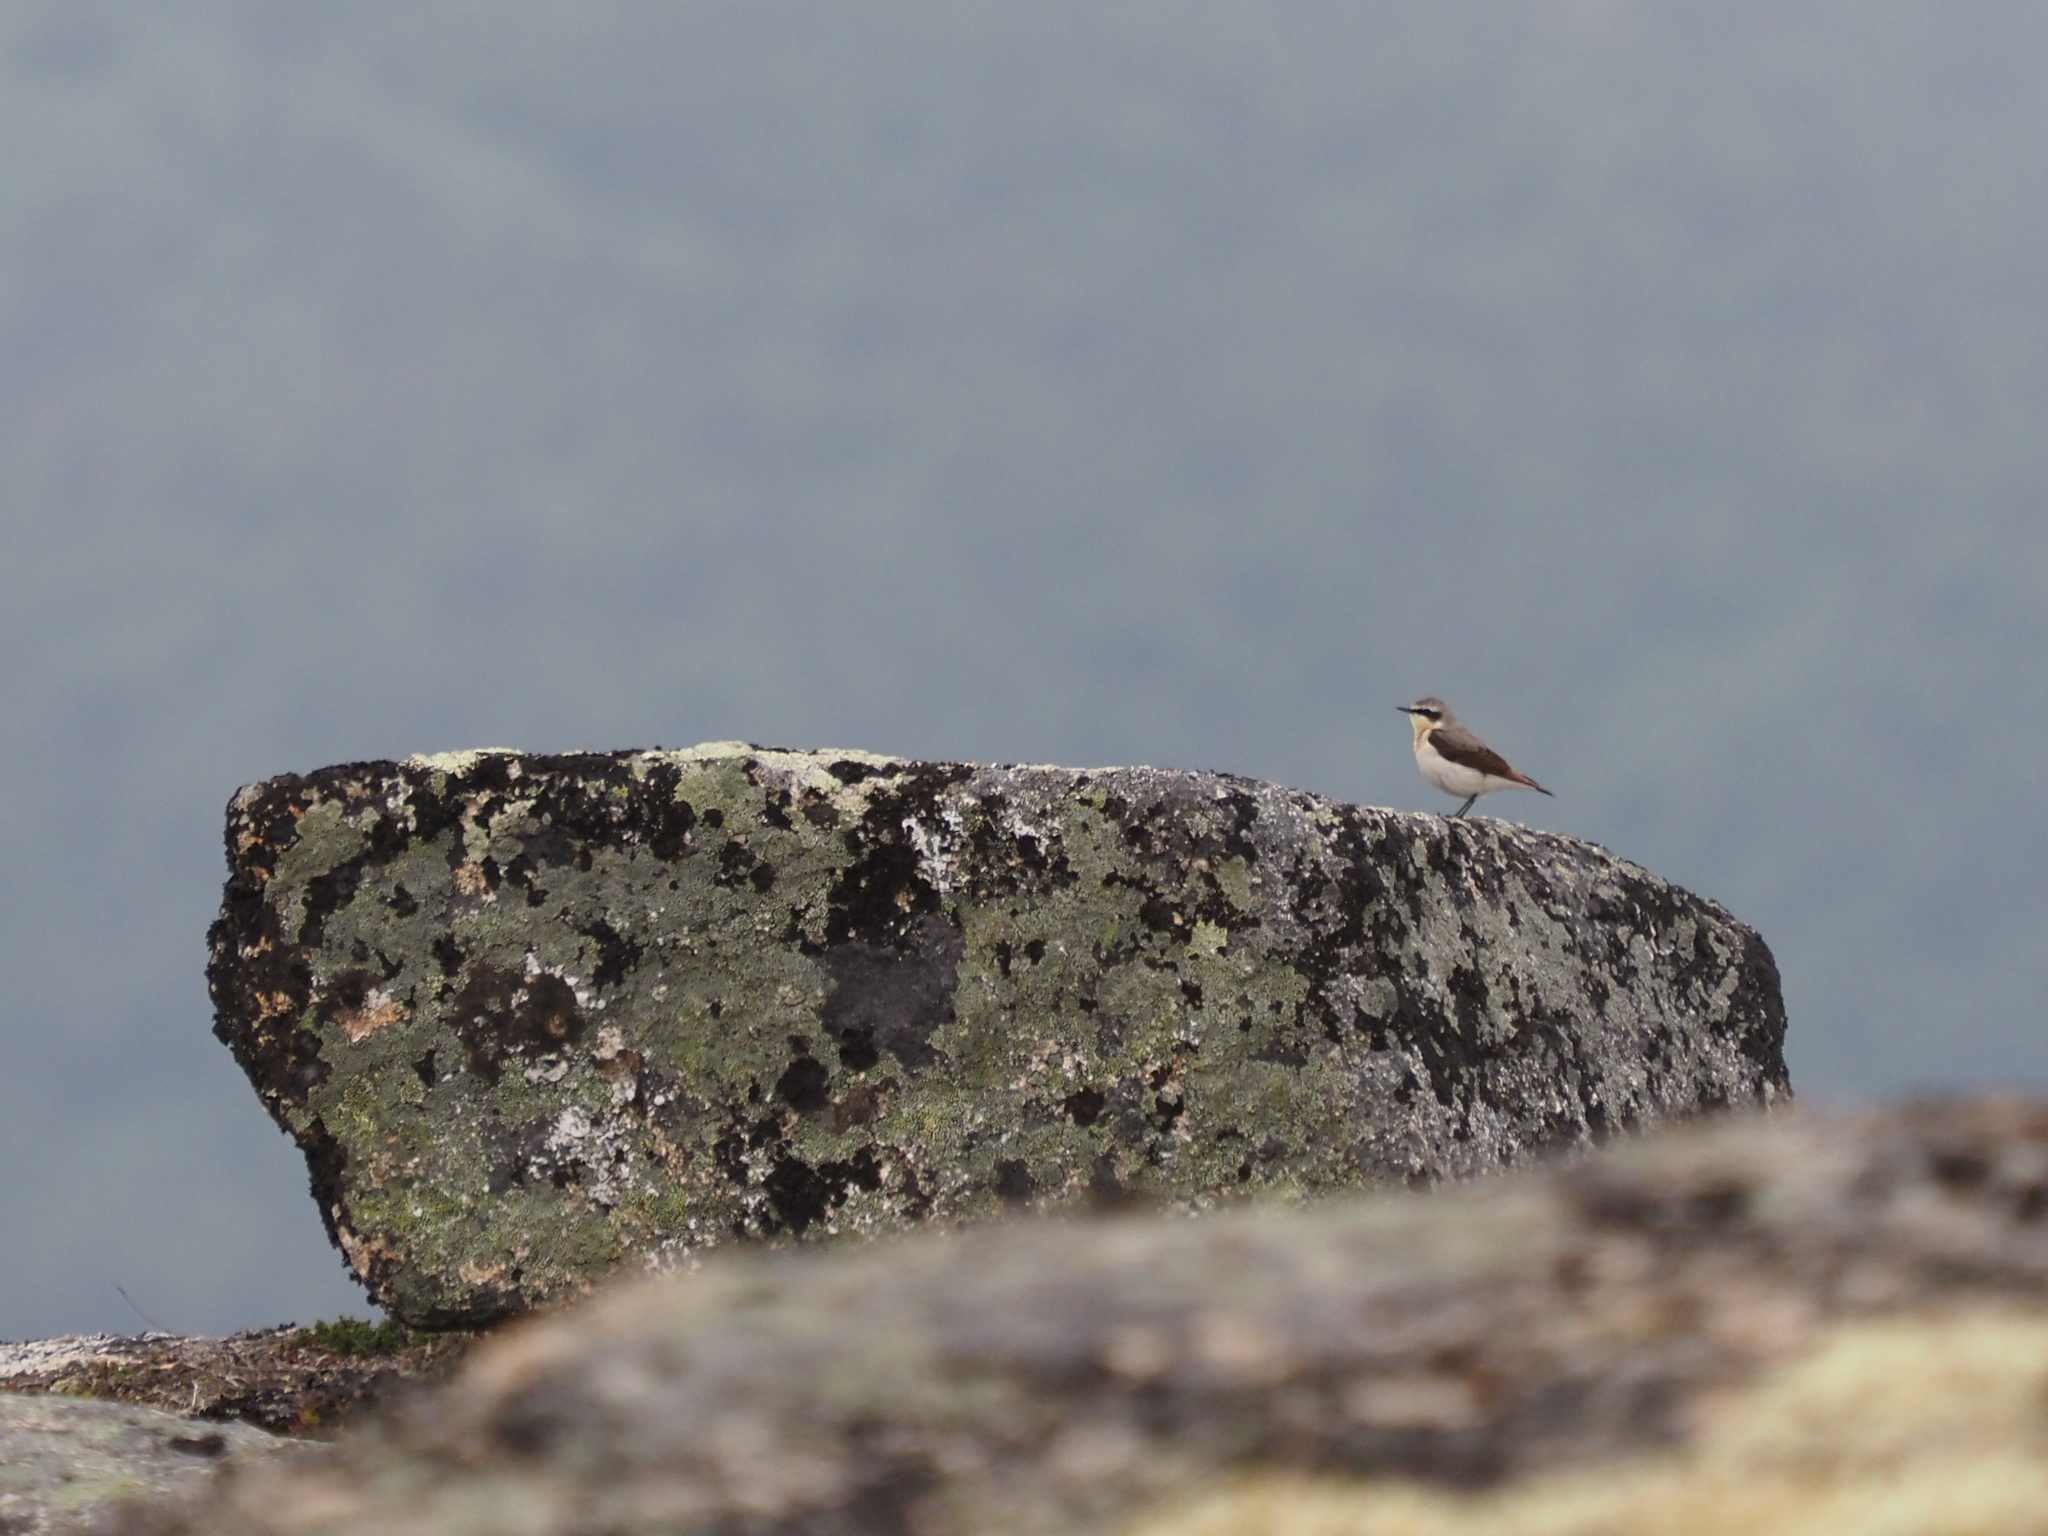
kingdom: Animalia
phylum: Chordata
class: Aves
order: Passeriformes
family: Muscicapidae
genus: Oenanthe
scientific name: Oenanthe oenanthe
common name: Northern wheatear
